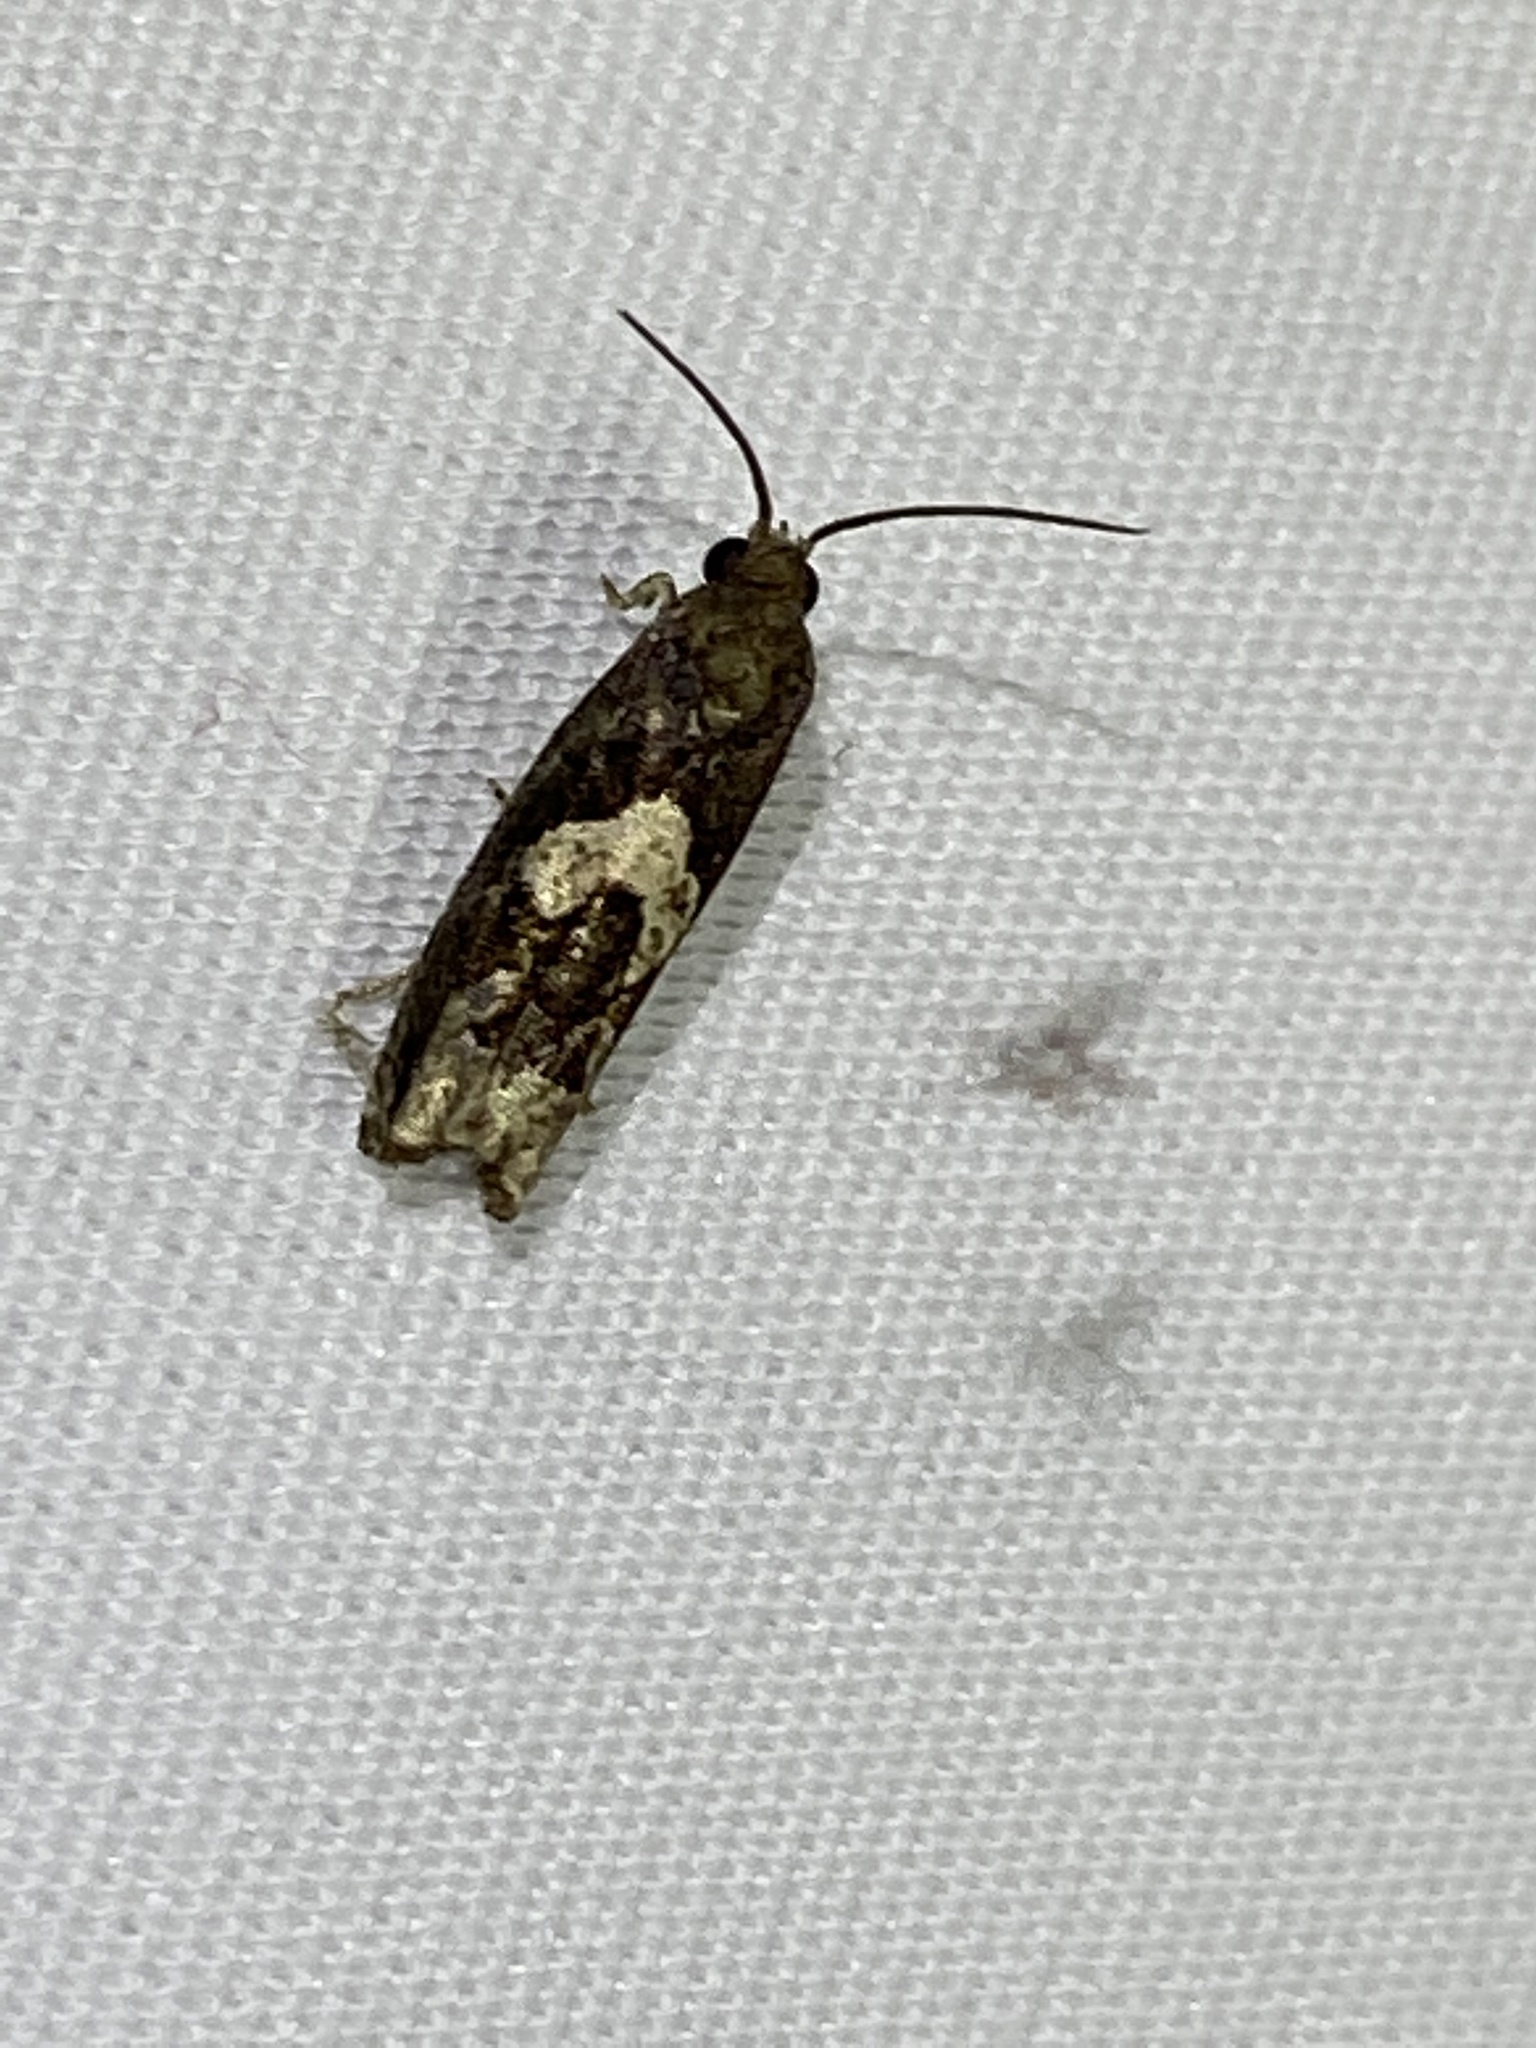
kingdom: Animalia
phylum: Arthropoda
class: Insecta
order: Lepidoptera
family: Tortricidae
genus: Epiblema
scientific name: Epiblema otiosana
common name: Bidens borer moth
